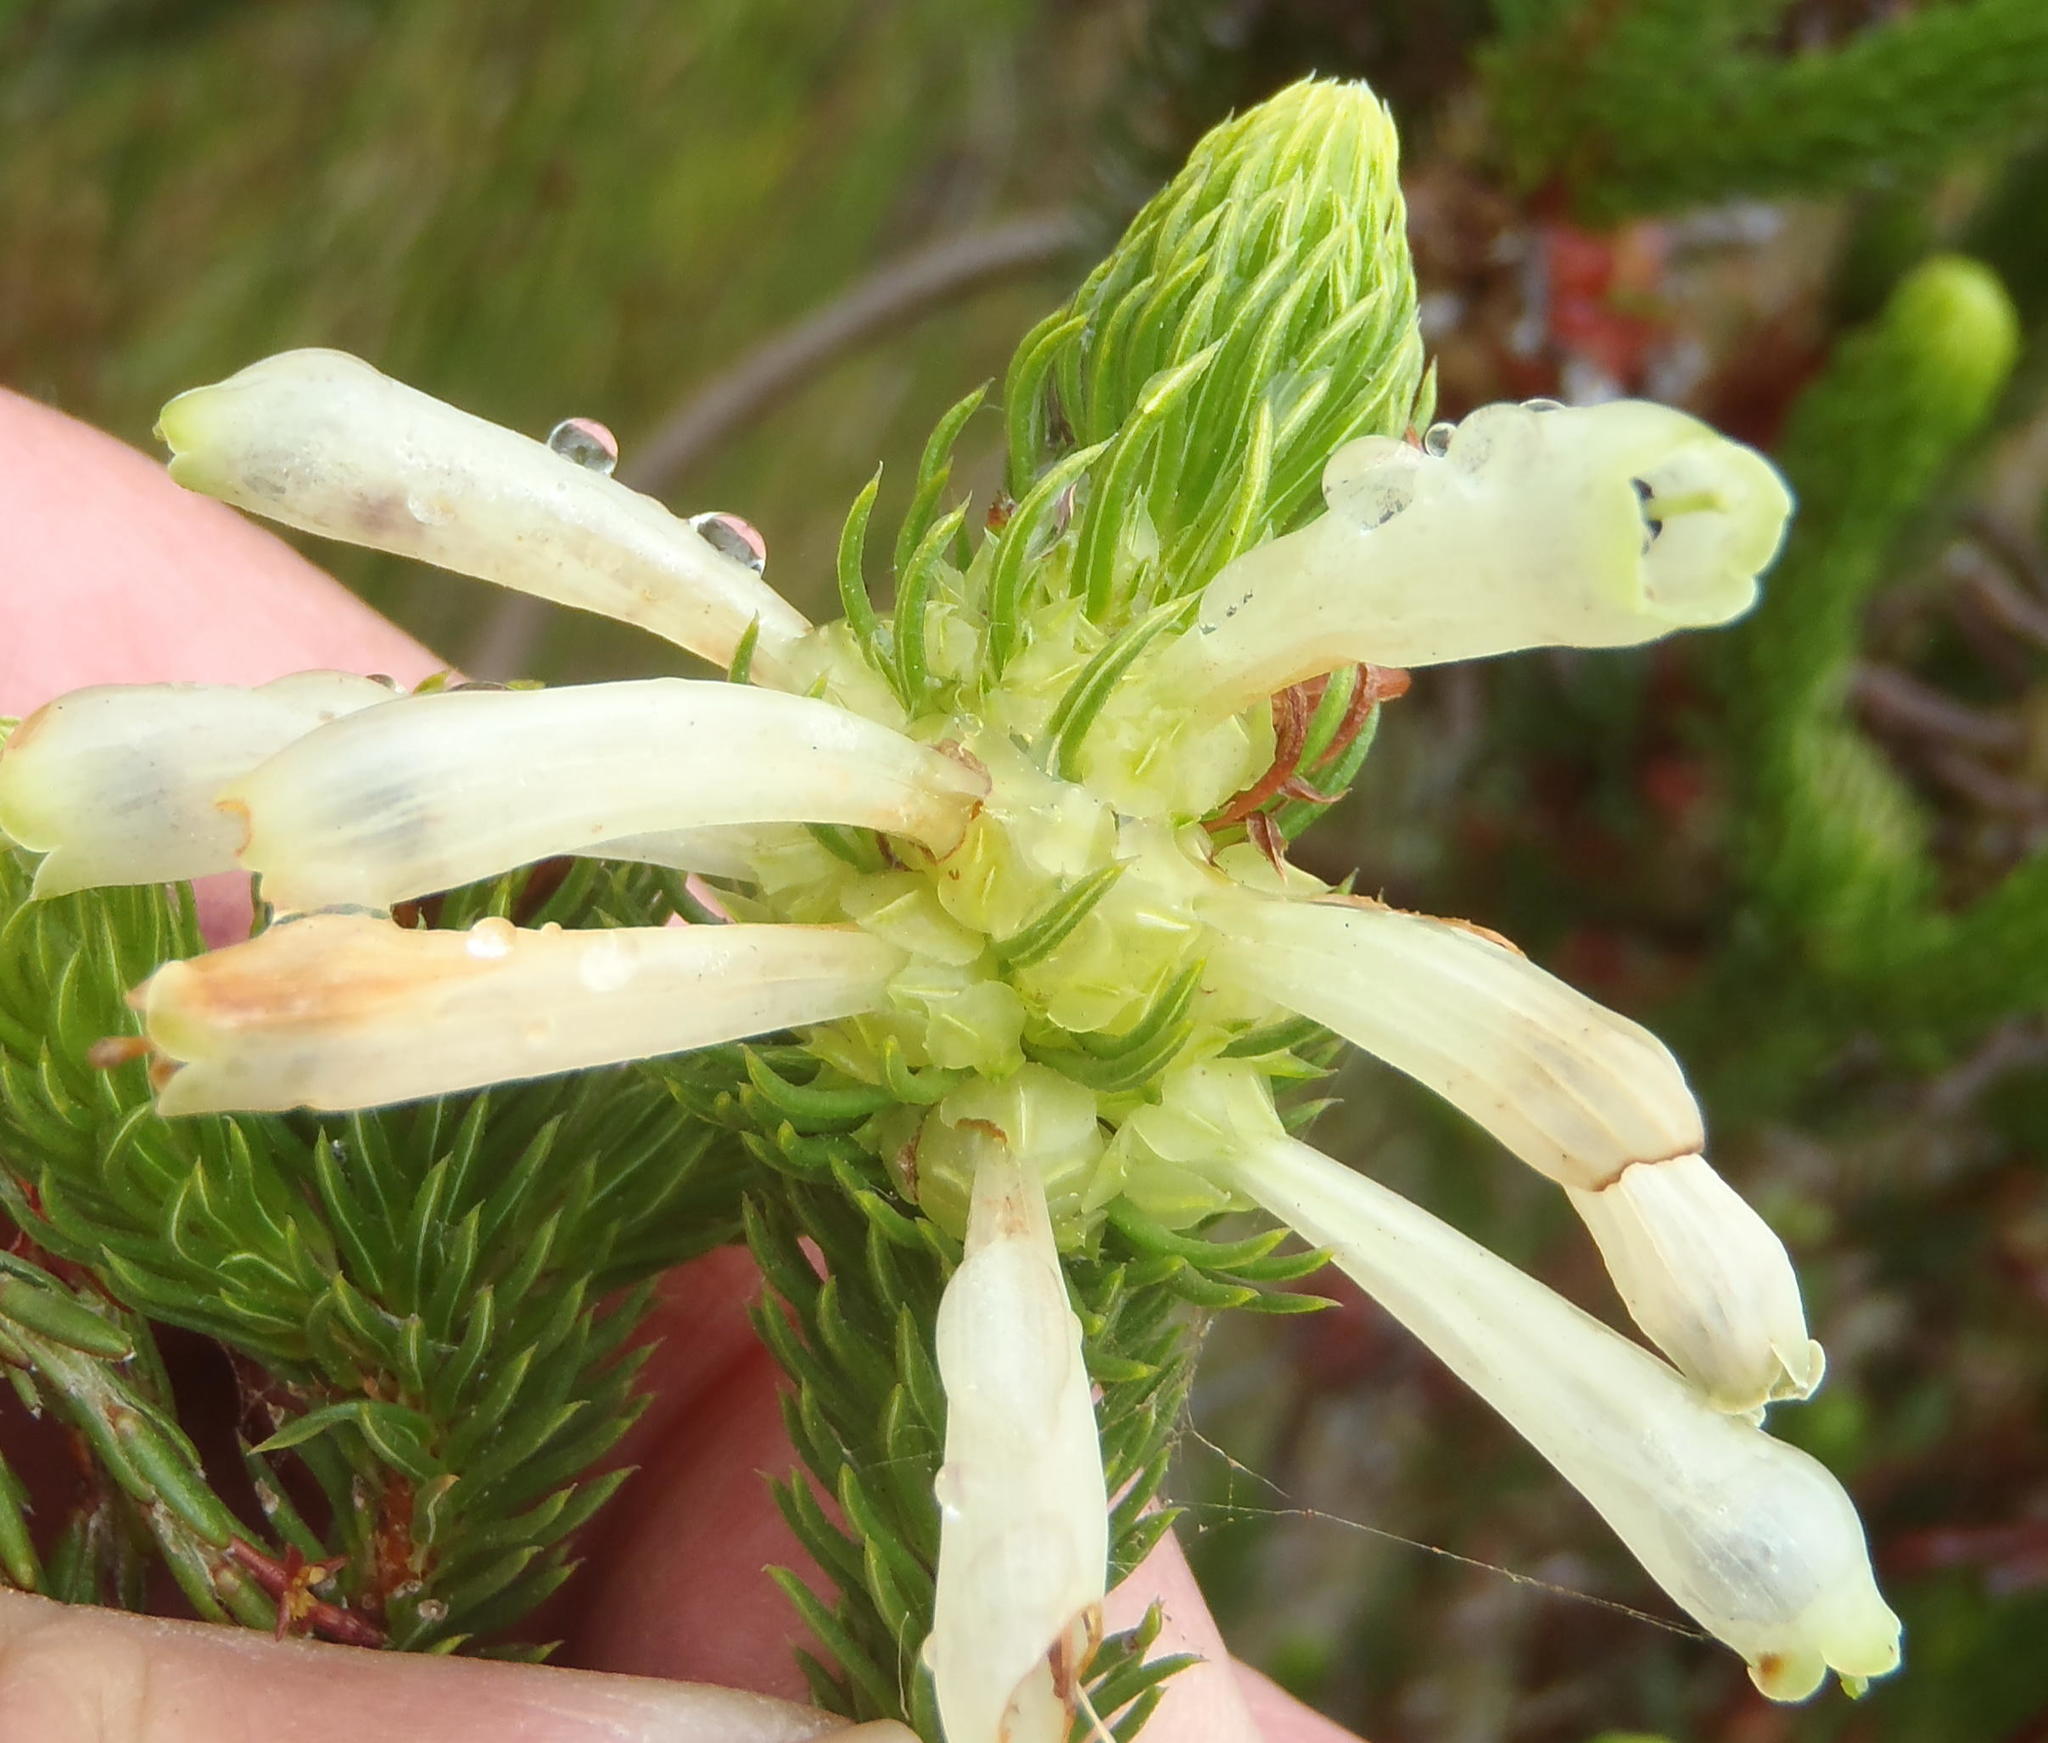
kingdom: Plantae
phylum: Tracheophyta
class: Magnoliopsida
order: Ericales
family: Ericaceae
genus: Erica
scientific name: Erica sessiliflora
